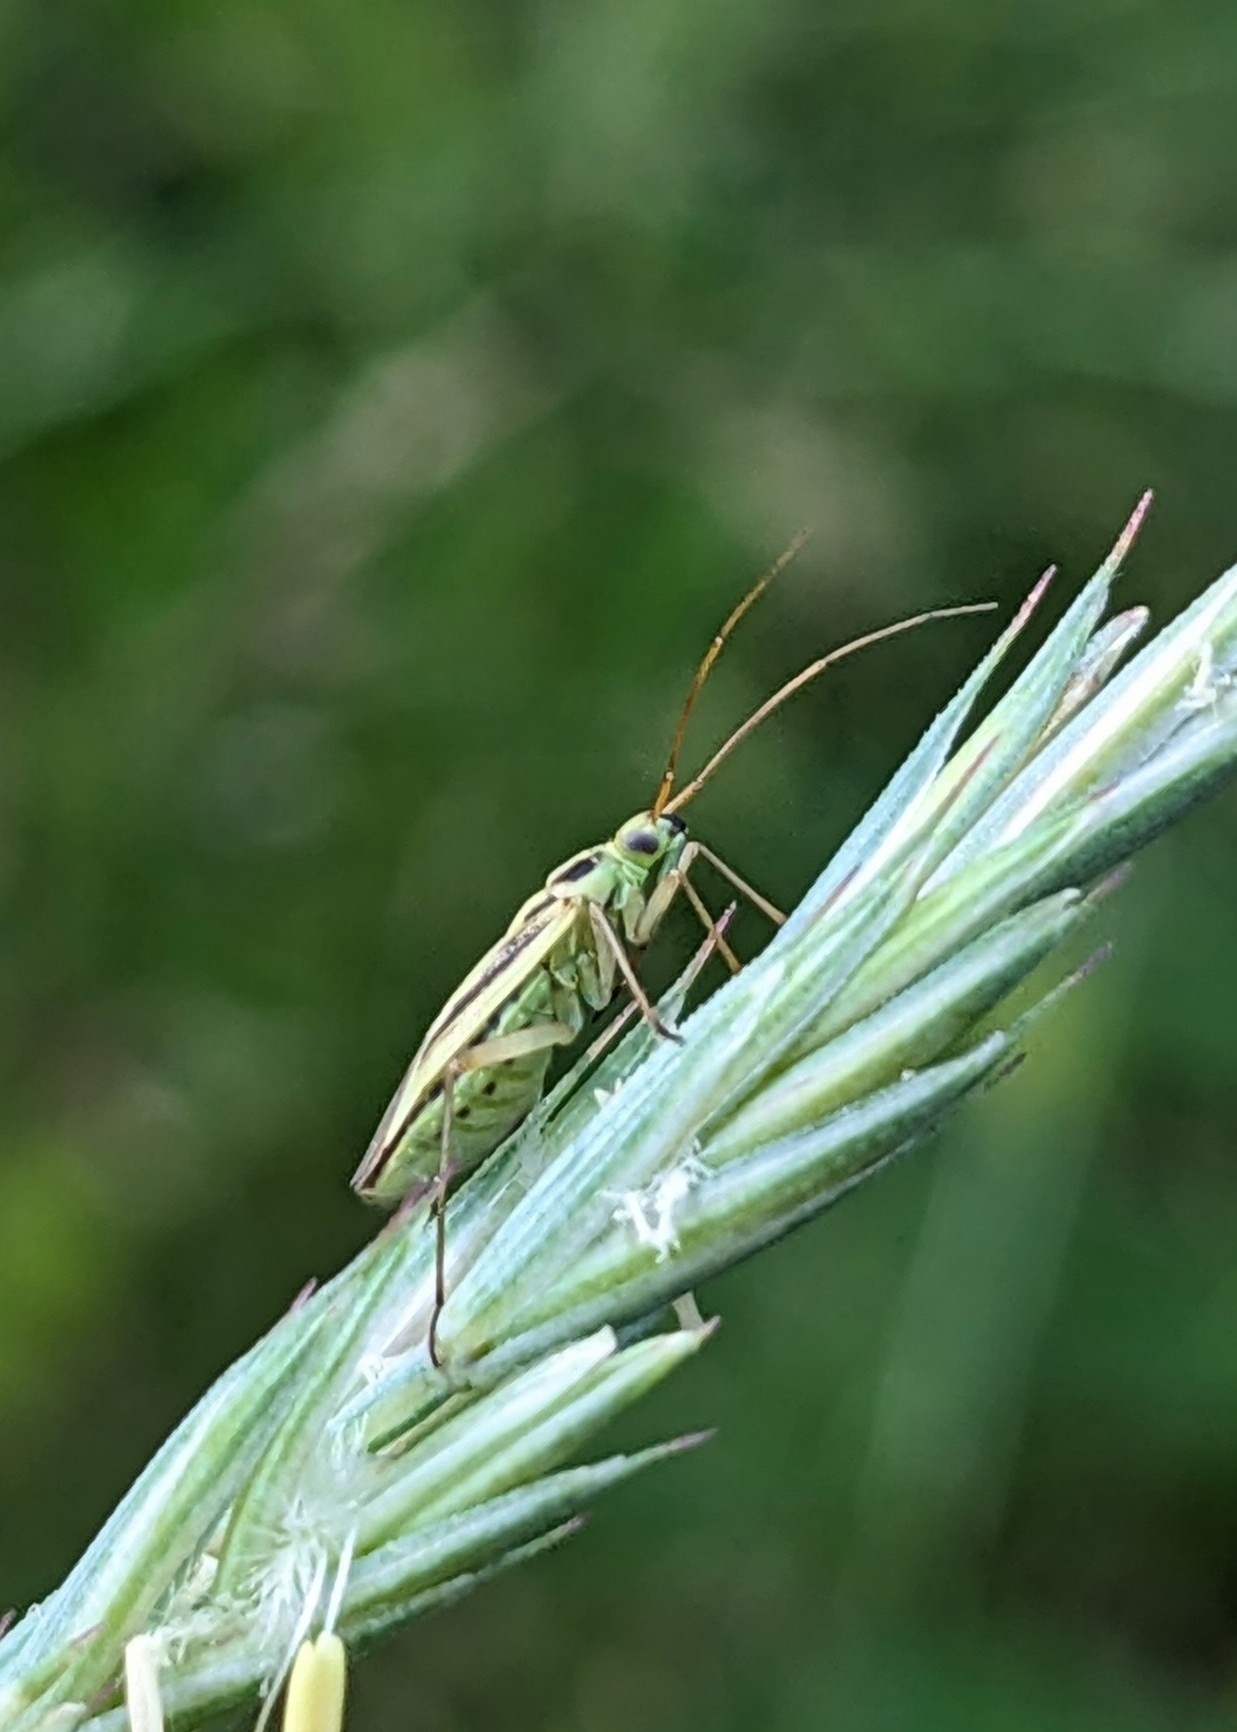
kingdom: Animalia
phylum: Arthropoda
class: Insecta
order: Hemiptera
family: Miridae
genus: Stenotus
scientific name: Stenotus binotatus
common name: Plant bug
